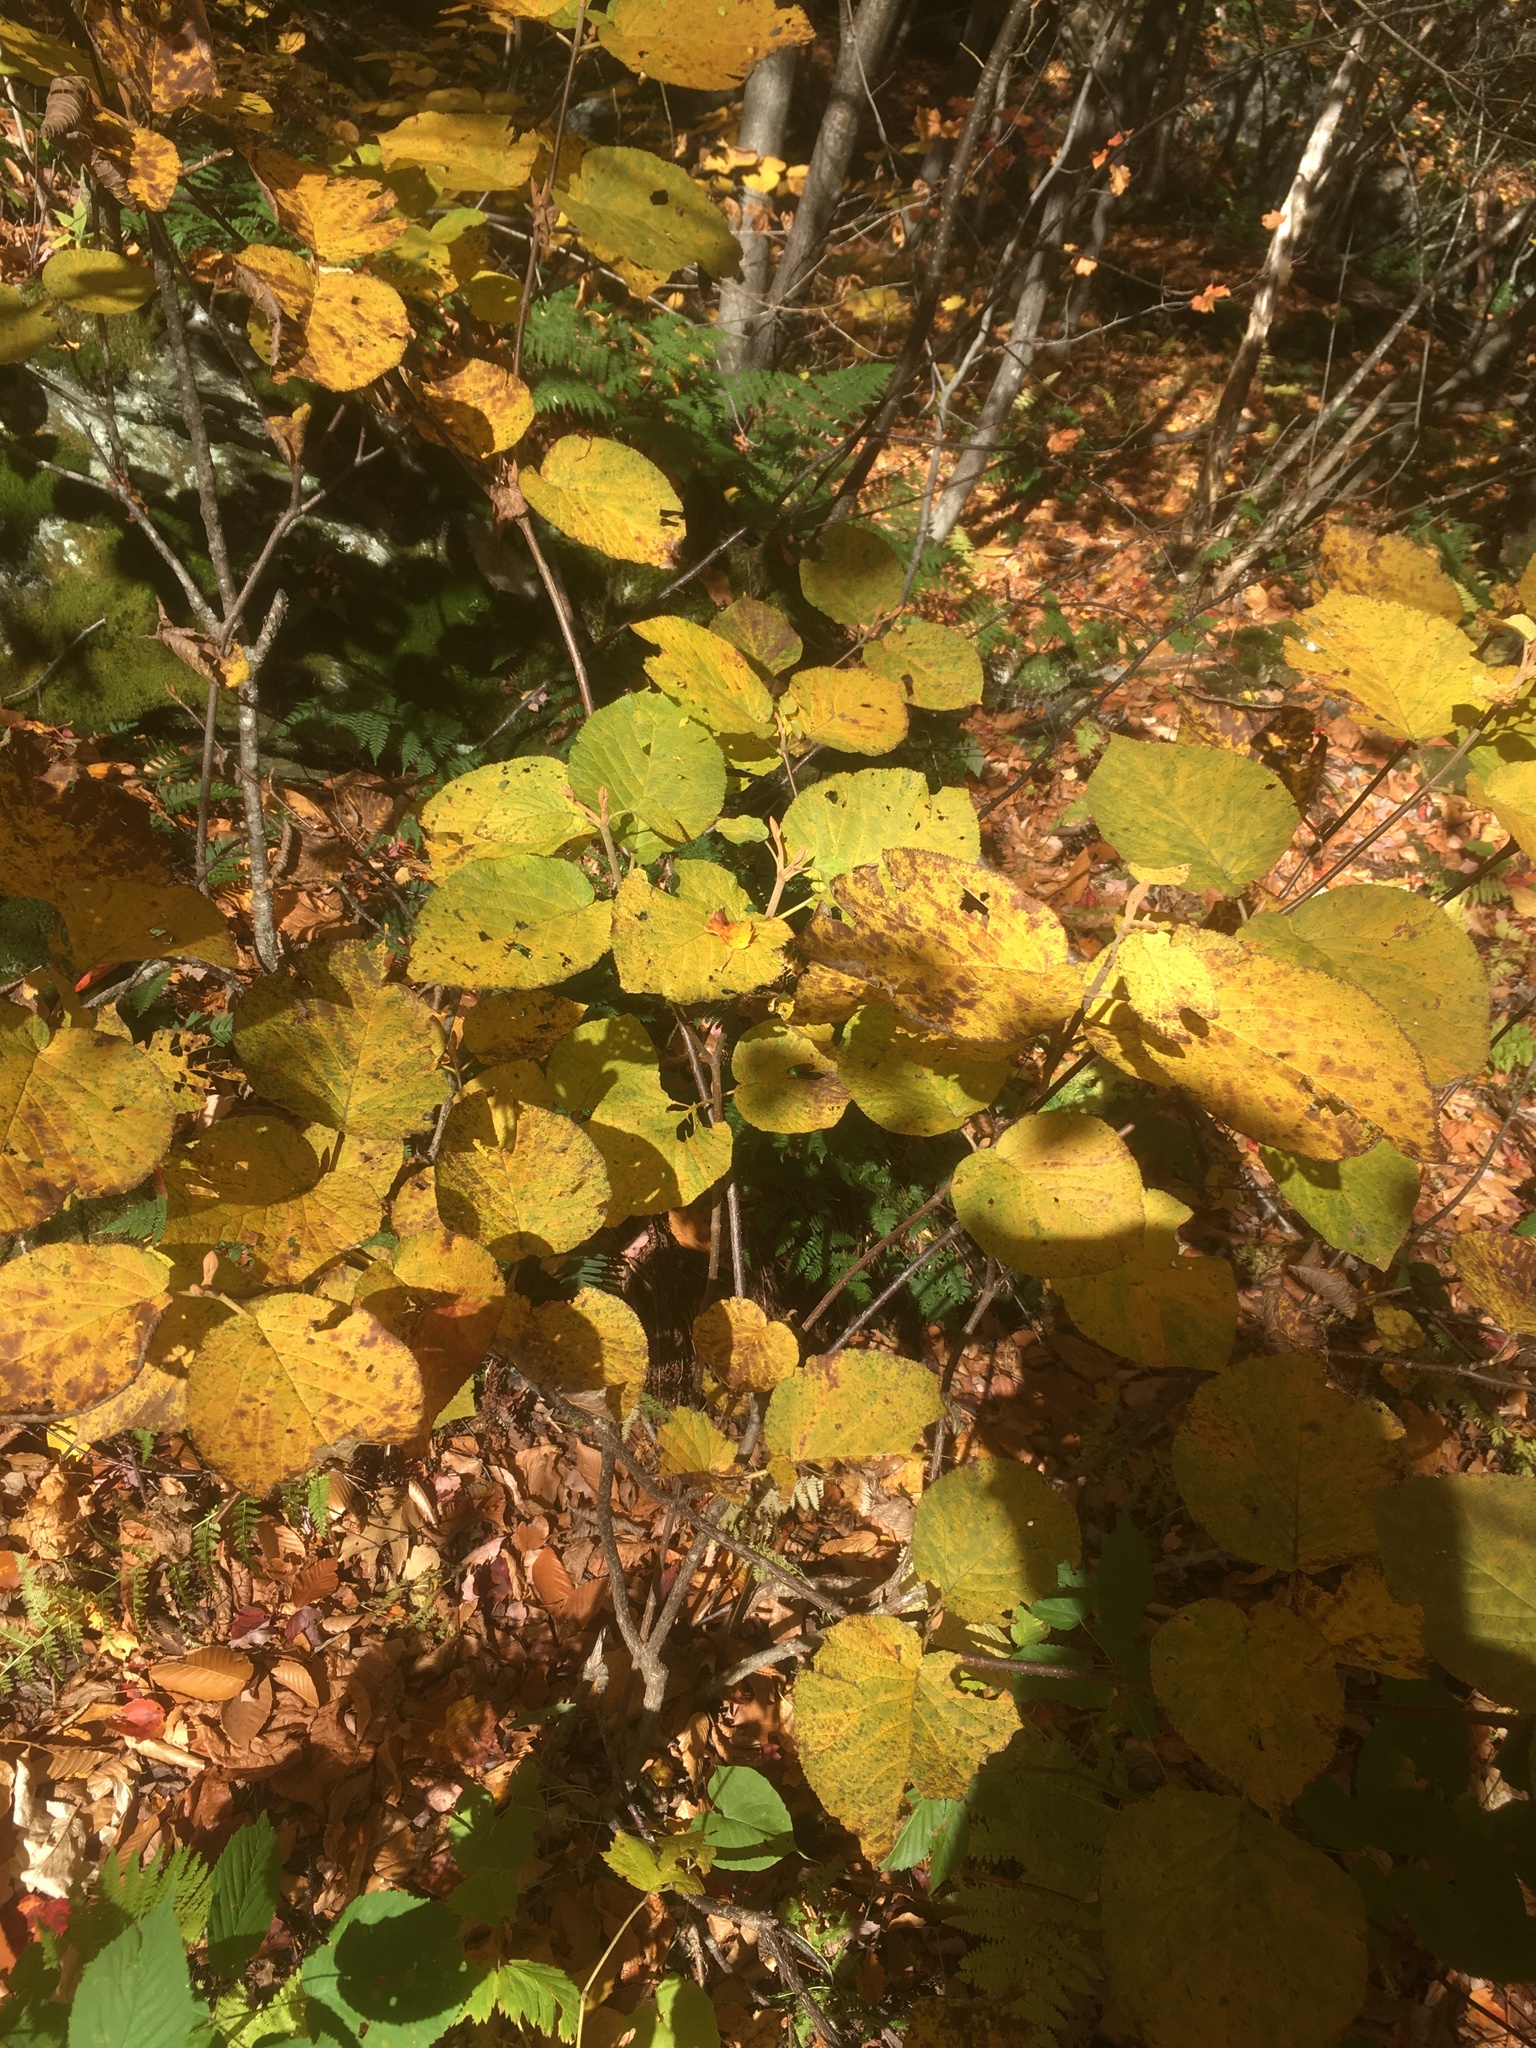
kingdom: Plantae
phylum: Tracheophyta
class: Magnoliopsida
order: Dipsacales
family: Viburnaceae
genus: Viburnum
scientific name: Viburnum lantanoides
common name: Hobblebush
